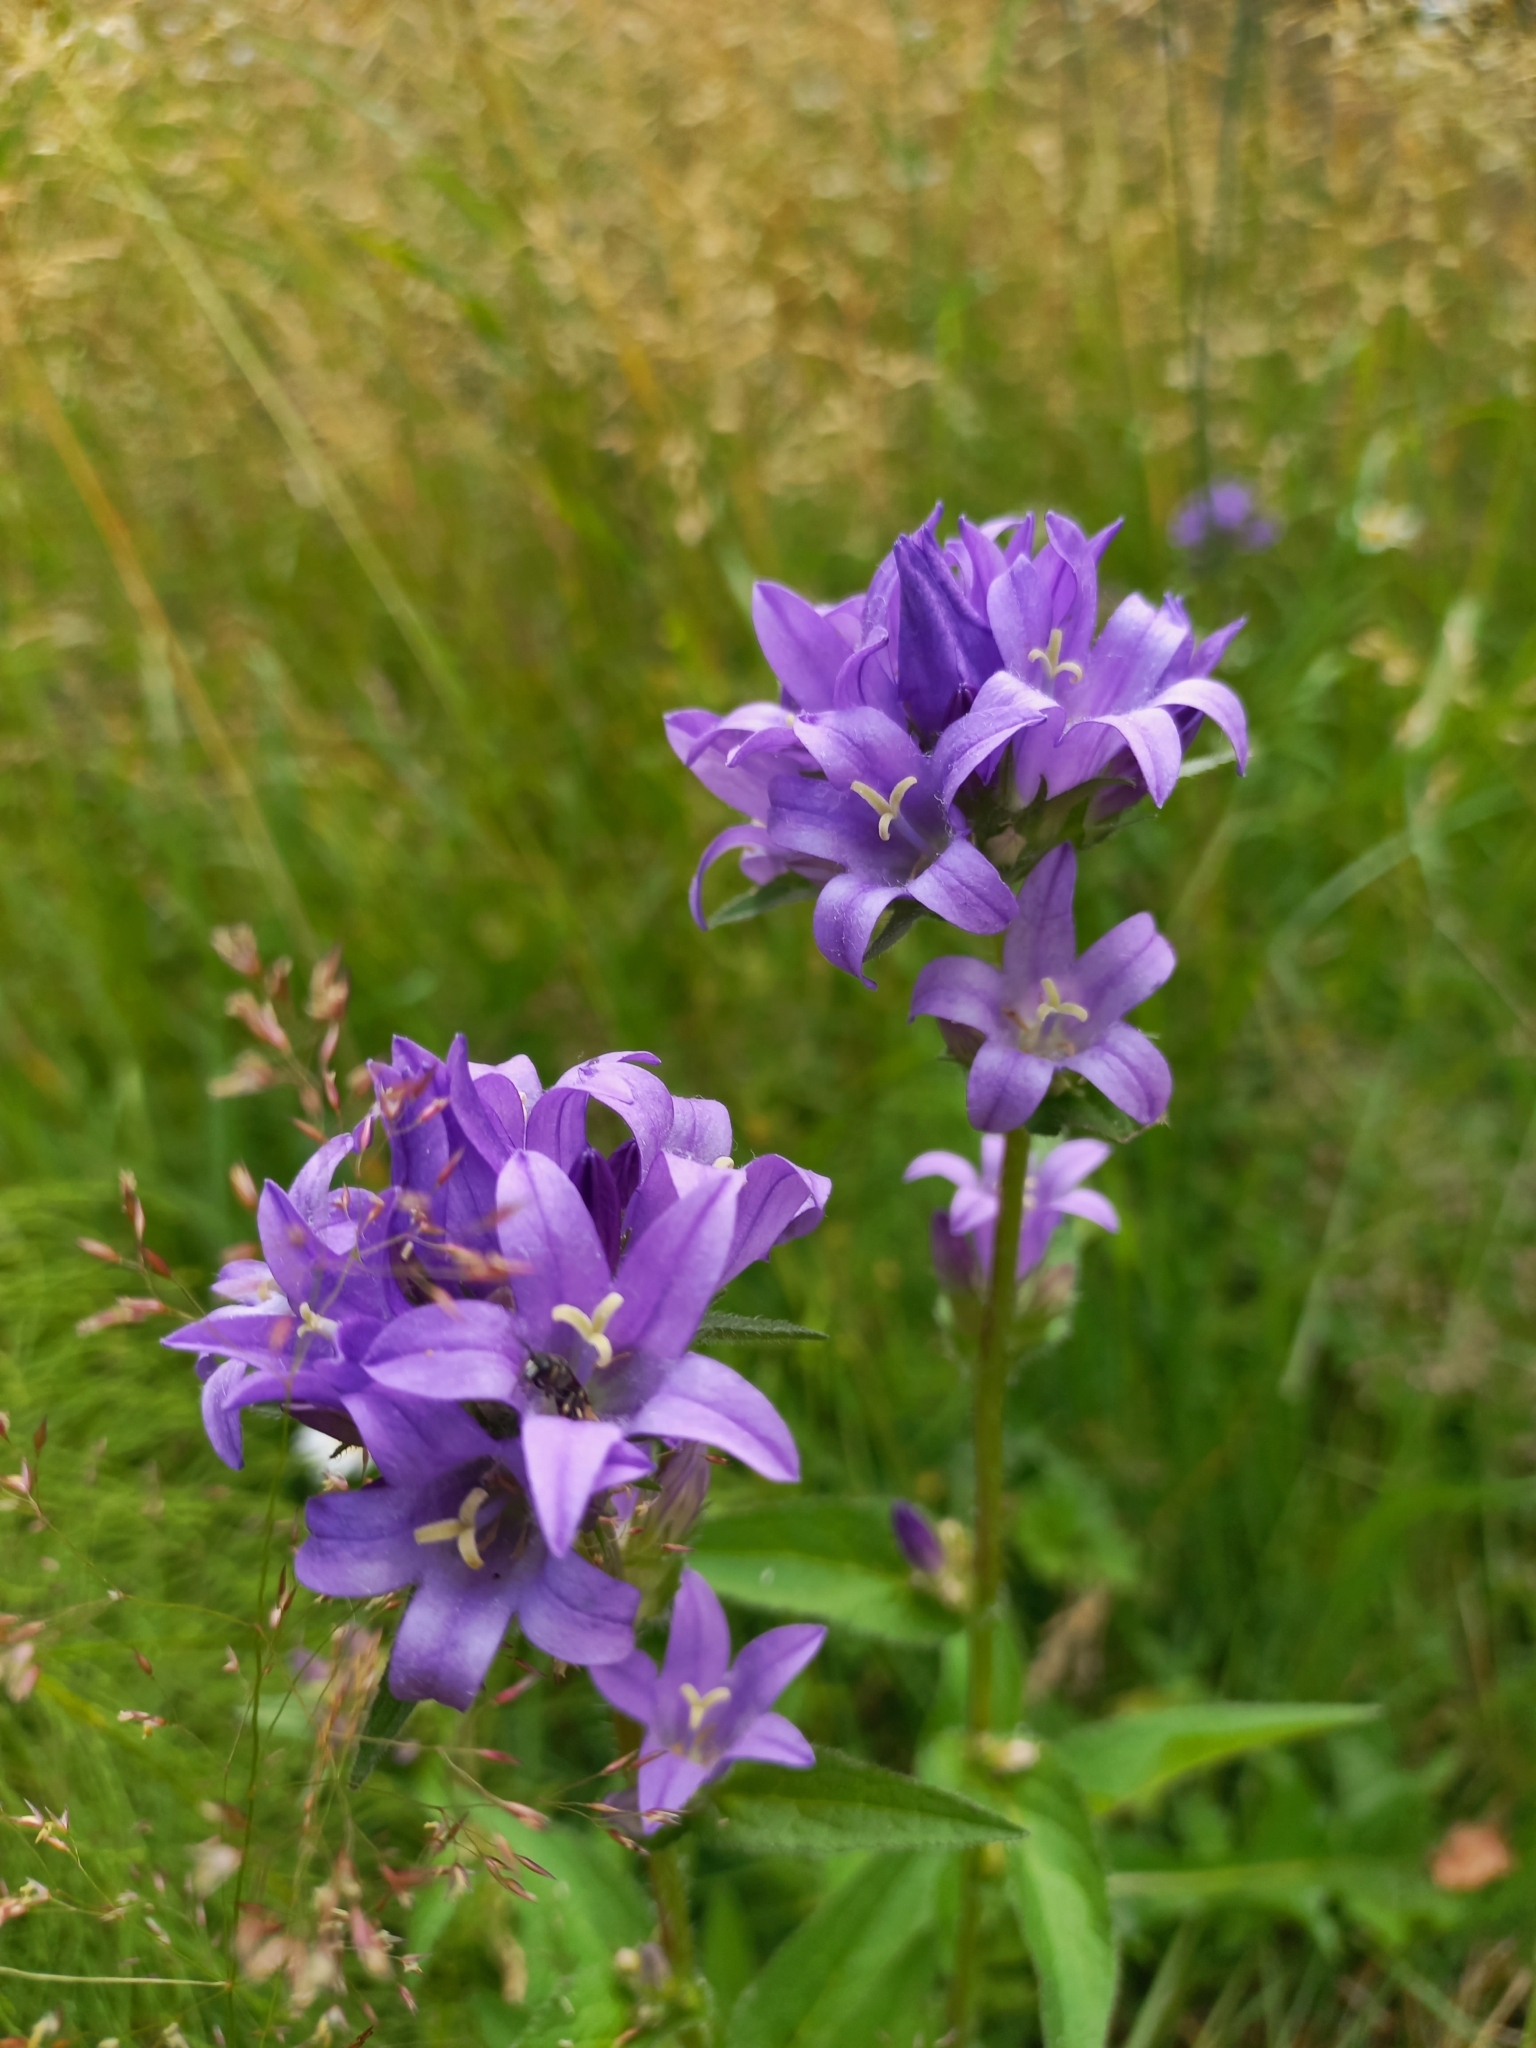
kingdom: Plantae
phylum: Tracheophyta
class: Magnoliopsida
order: Asterales
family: Campanulaceae
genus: Campanula
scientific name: Campanula glomerata
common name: Clustered bellflower
